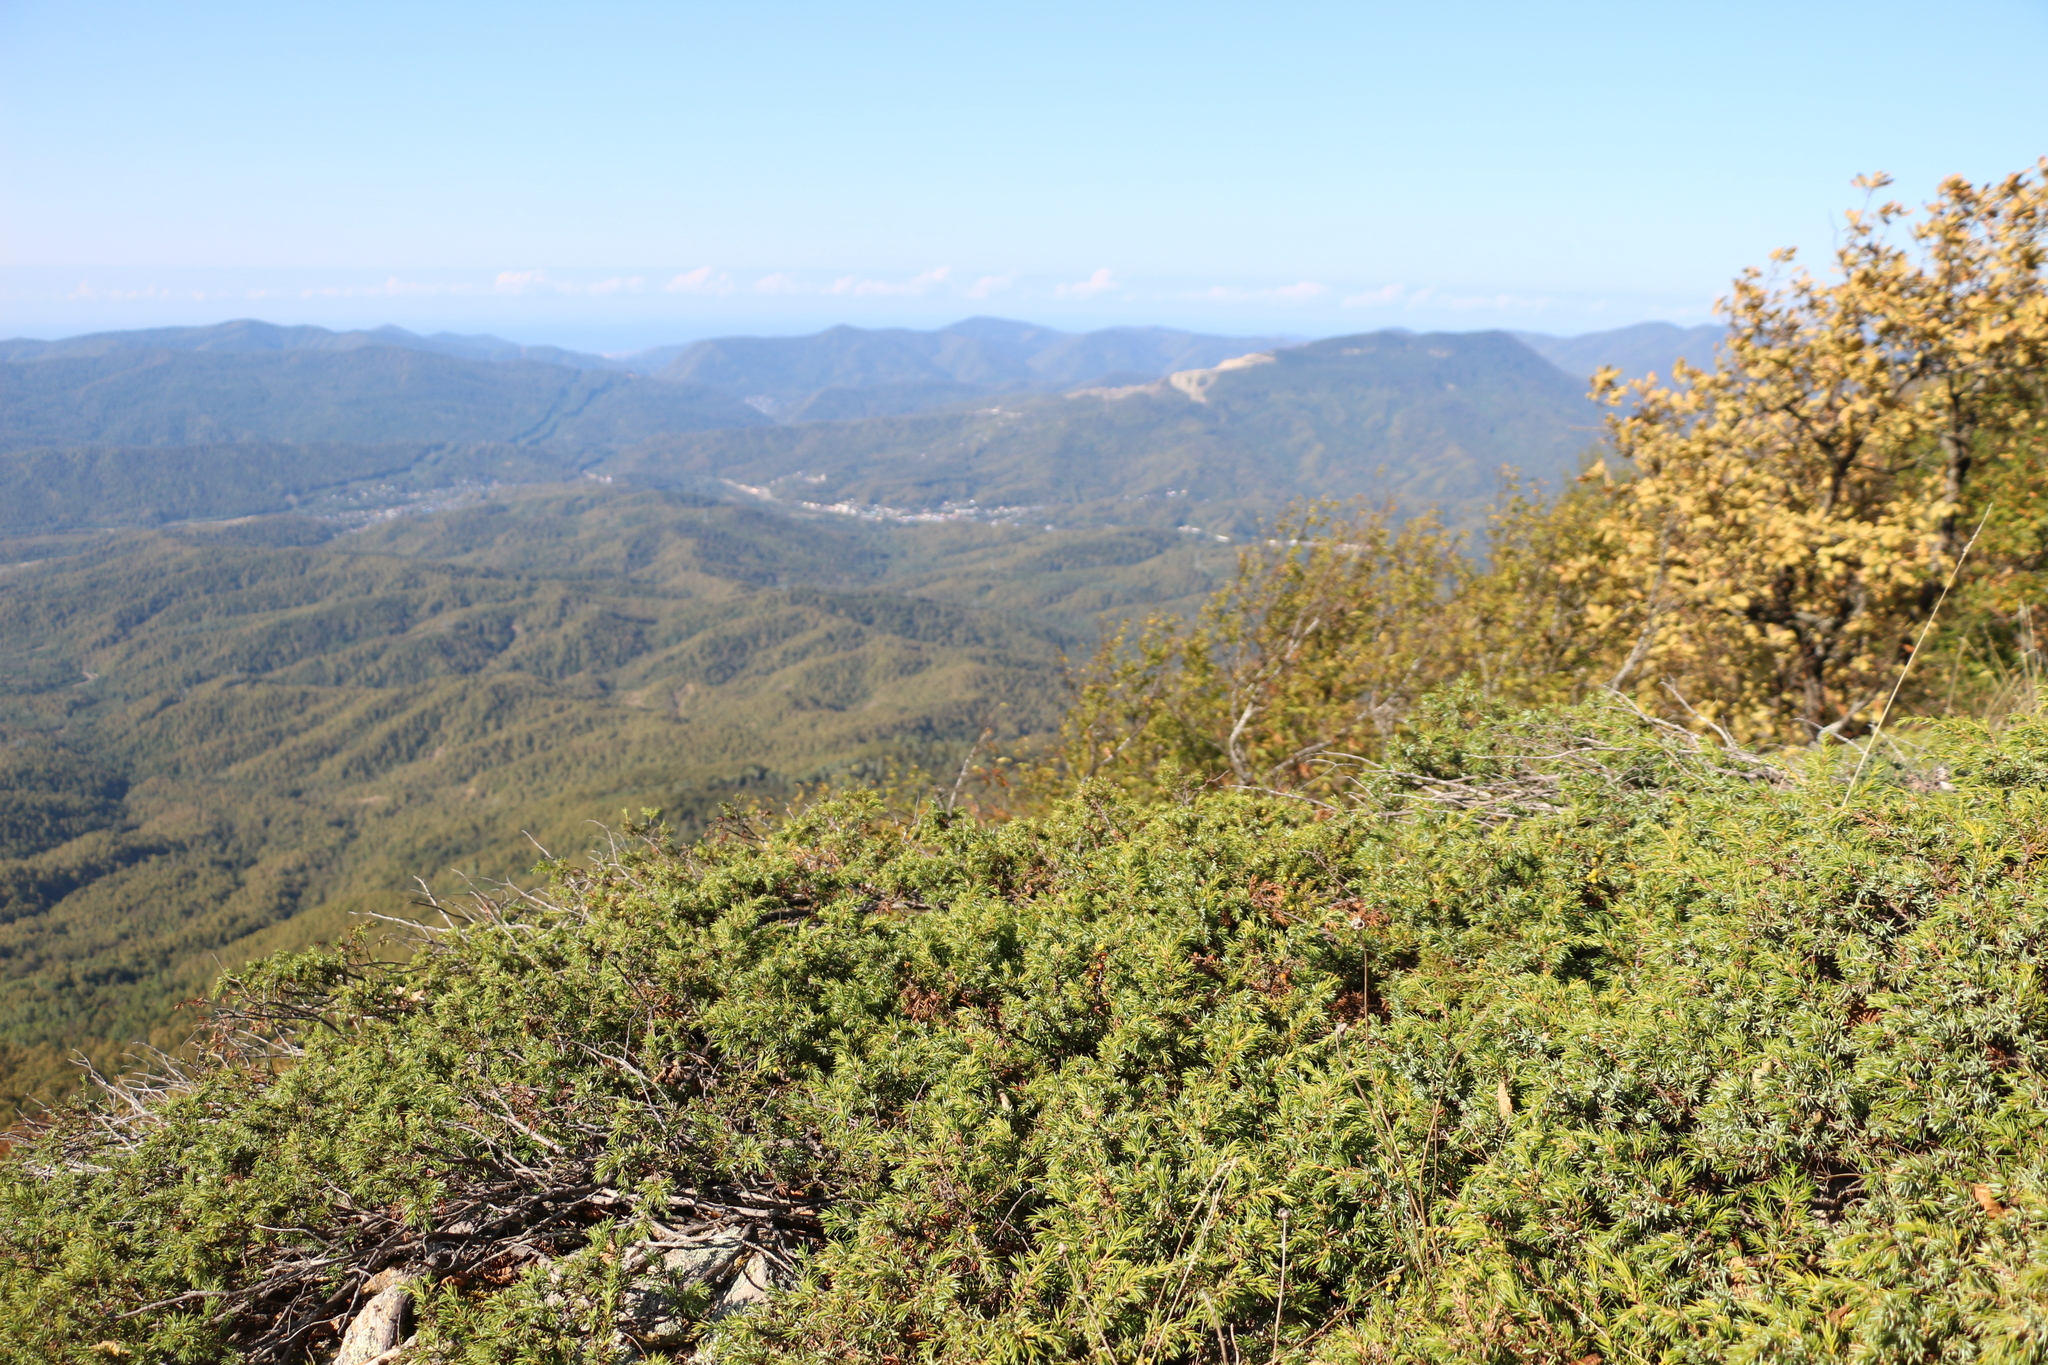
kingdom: Plantae
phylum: Tracheophyta
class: Pinopsida
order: Pinales
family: Cupressaceae
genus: Juniperus
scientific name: Juniperus communis
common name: Common juniper
